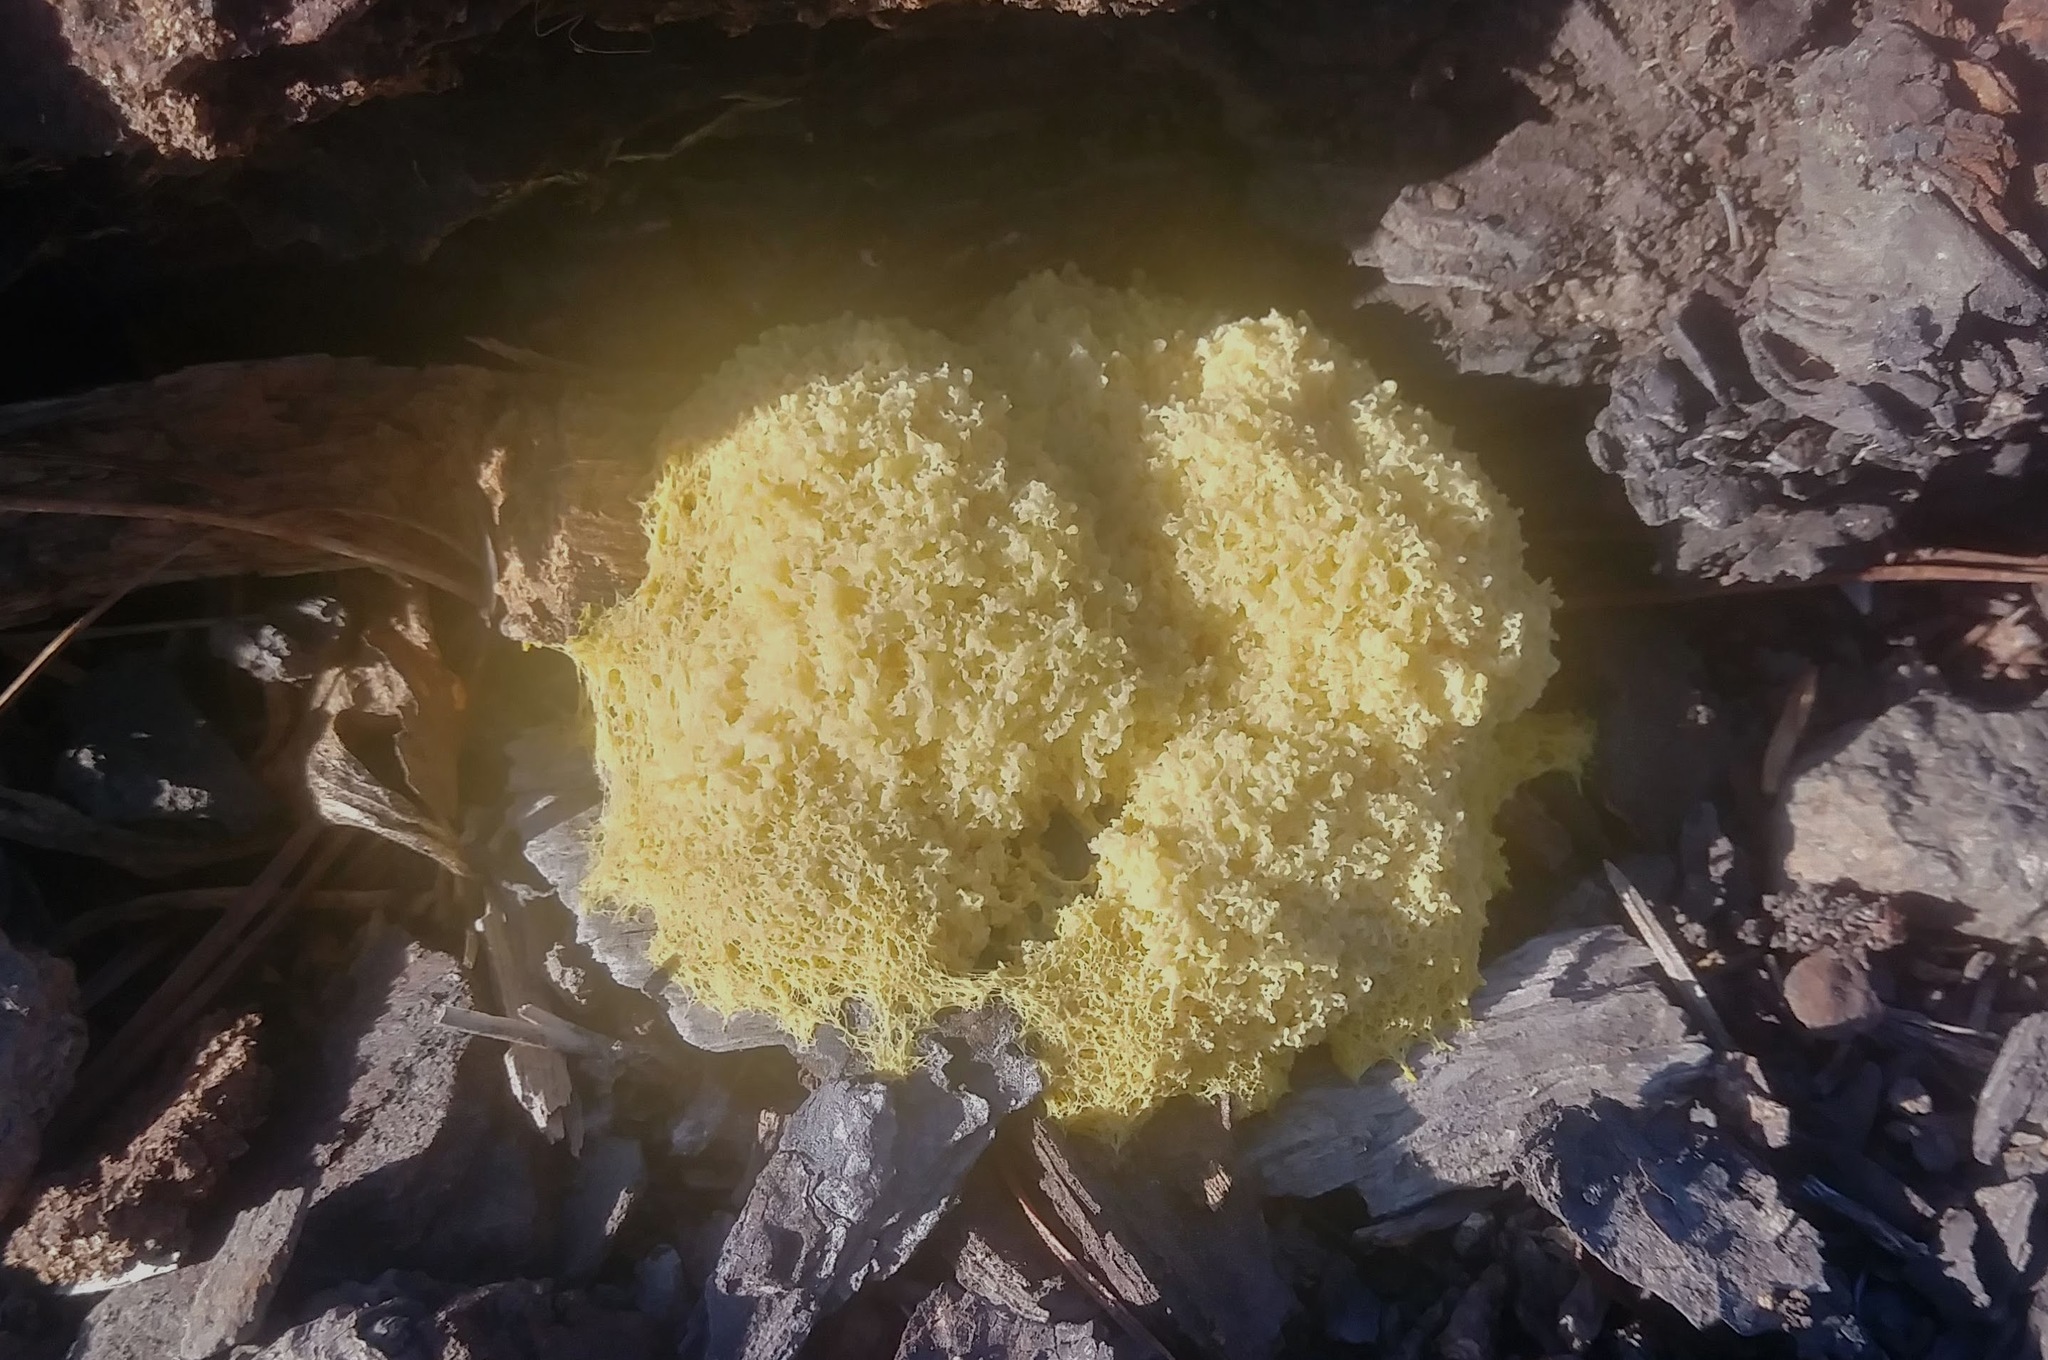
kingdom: Protozoa
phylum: Mycetozoa
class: Myxomycetes
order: Physarales
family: Physaraceae
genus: Fuligo
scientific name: Fuligo septica
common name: Dog vomit slime mold
